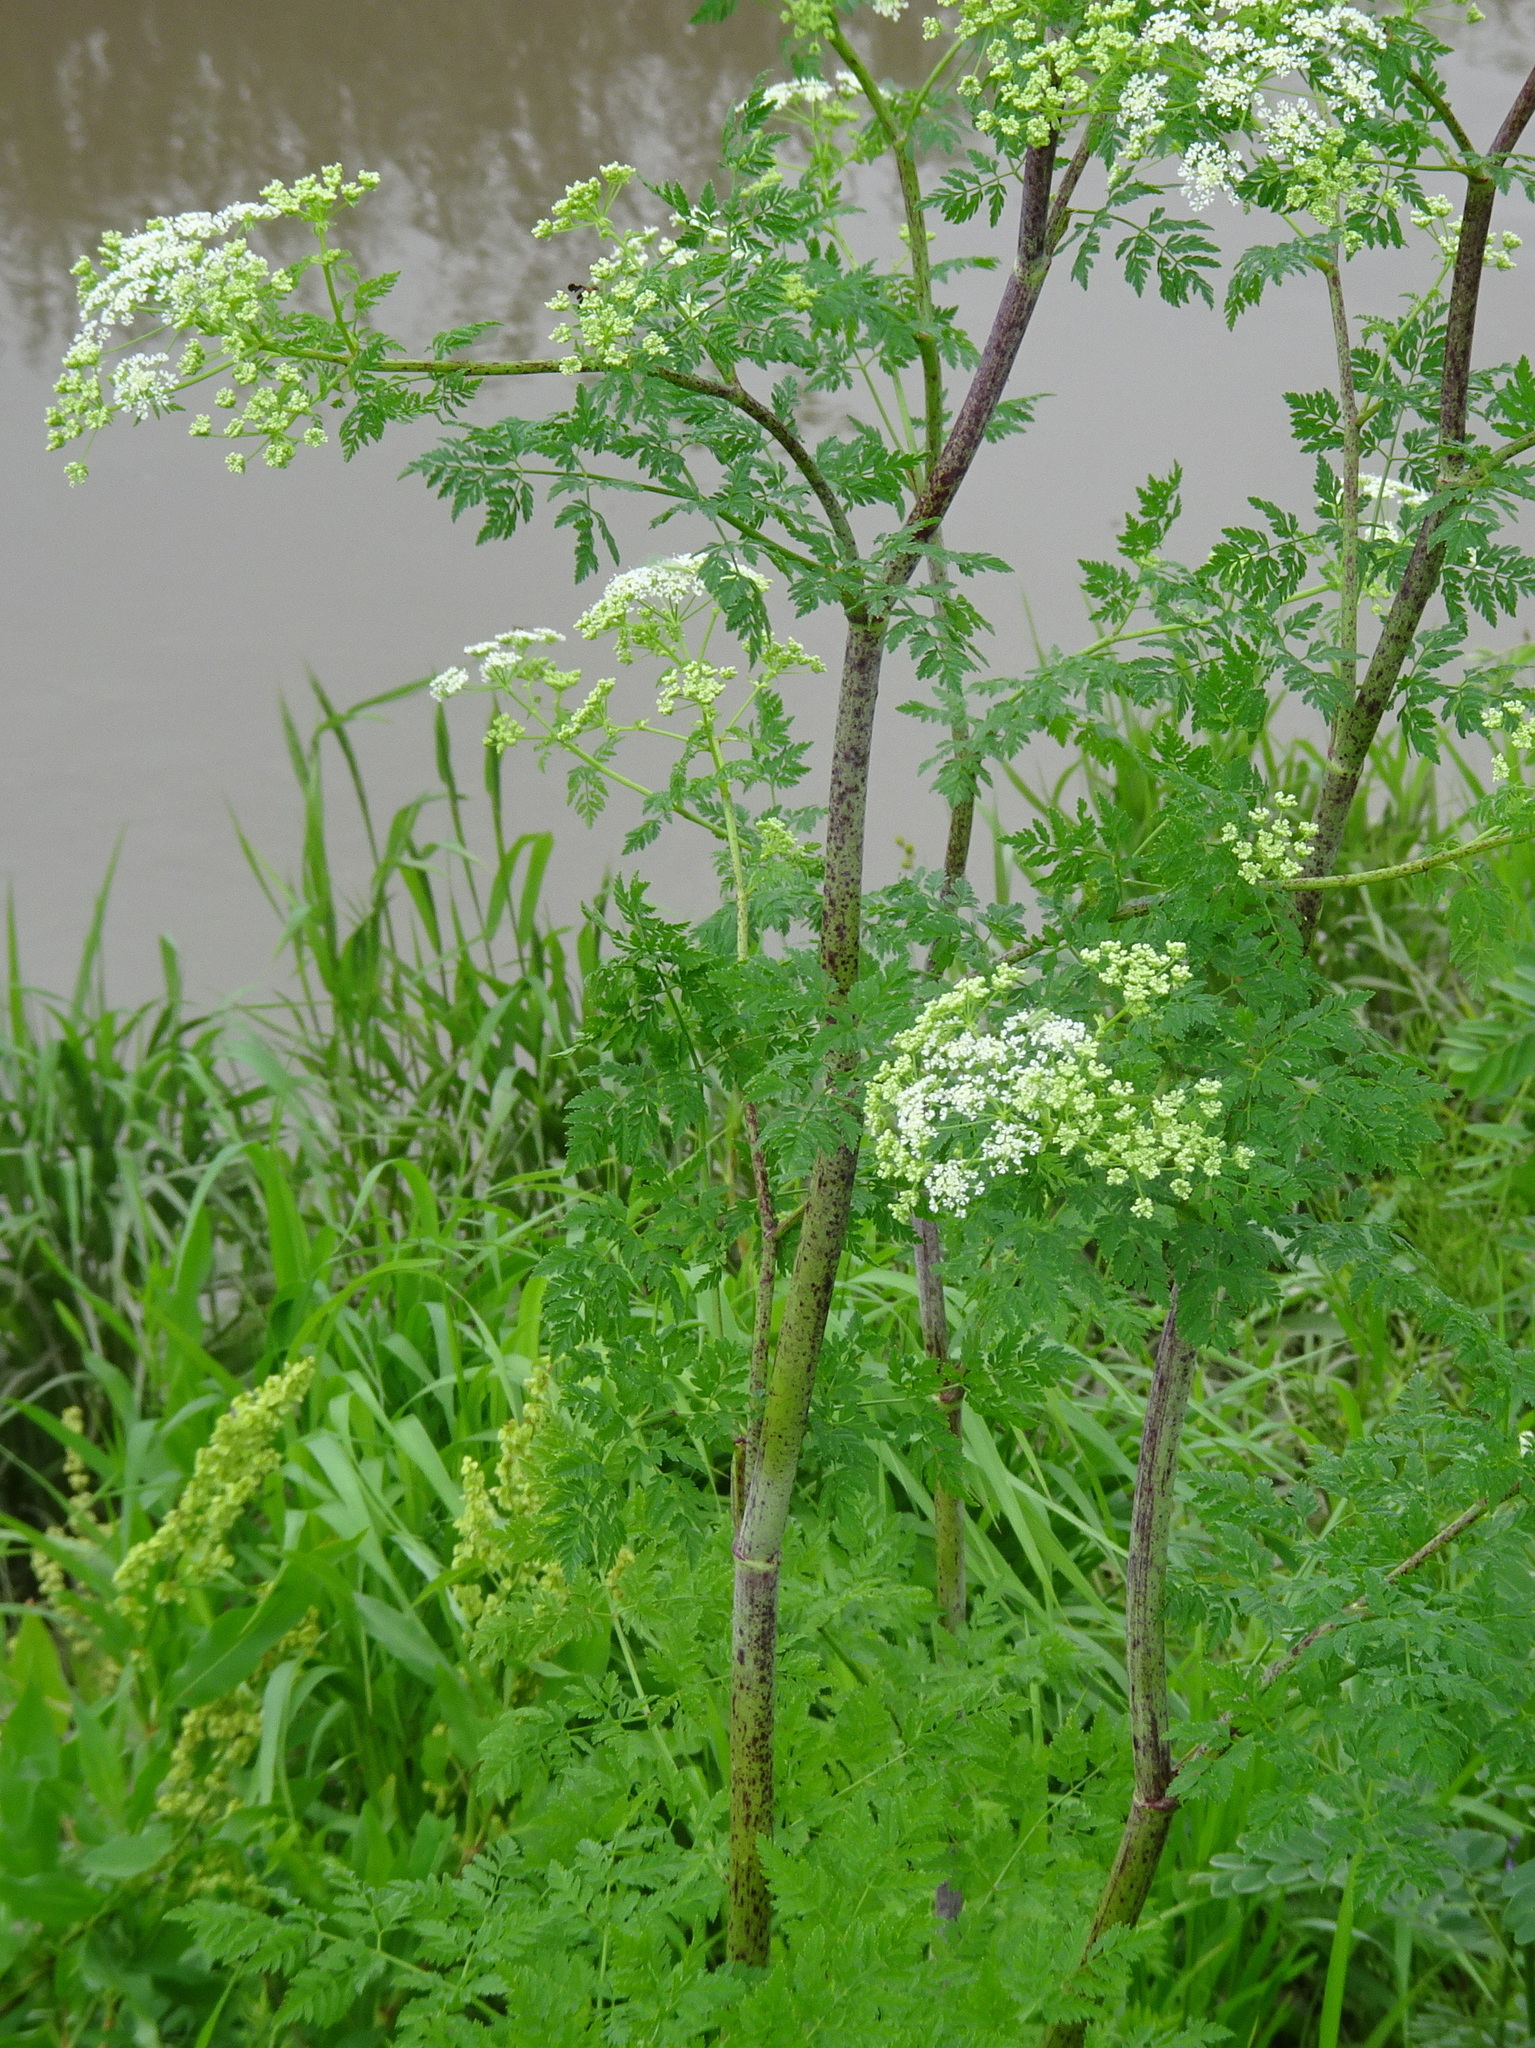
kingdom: Plantae
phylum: Tracheophyta
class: Magnoliopsida
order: Apiales
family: Apiaceae
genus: Conium
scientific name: Conium maculatum
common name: Hemlock
